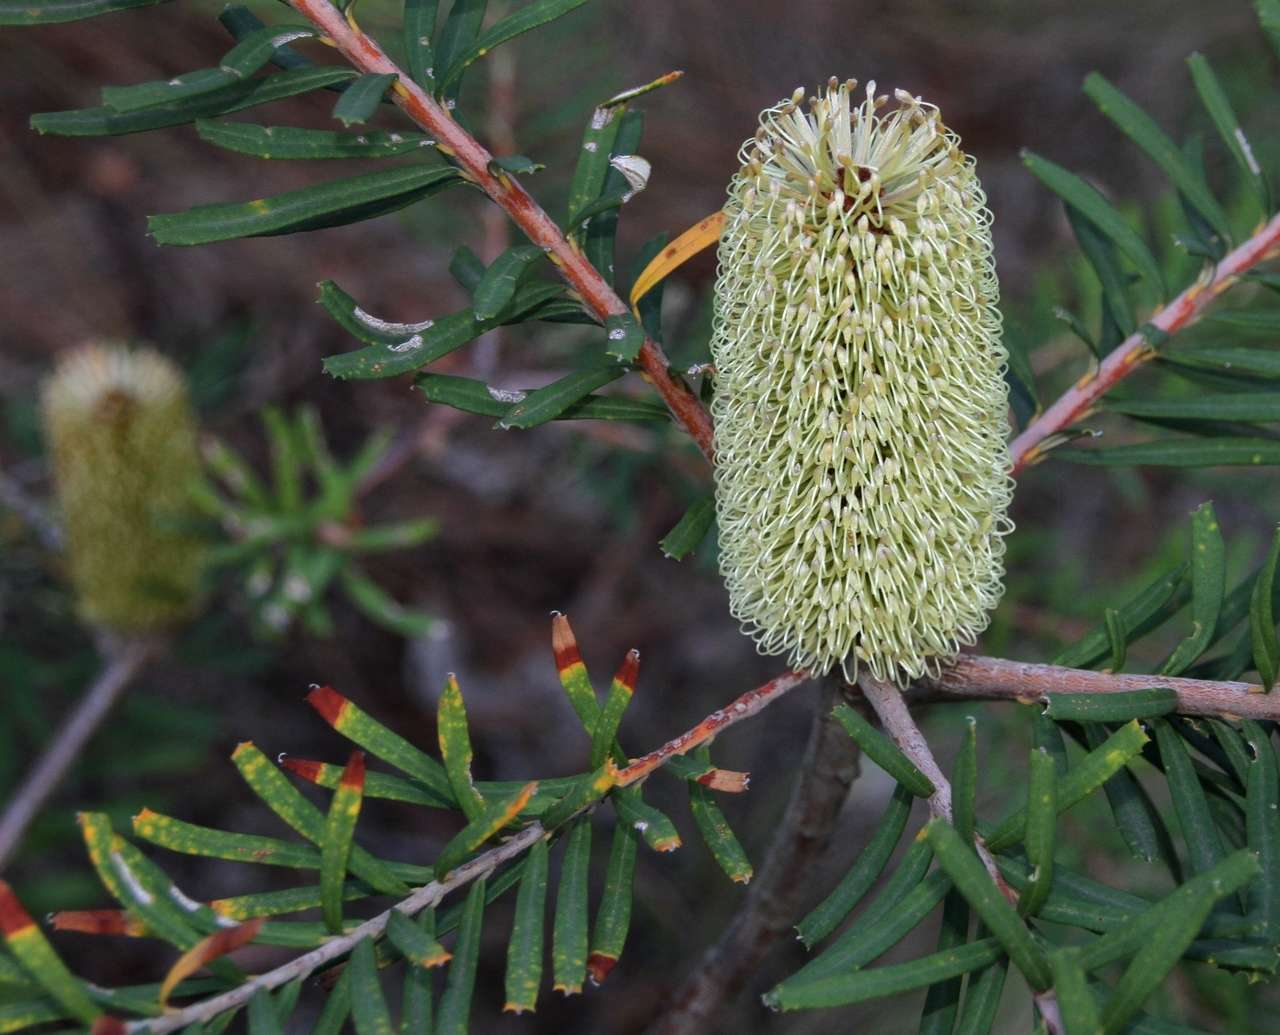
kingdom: Plantae
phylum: Tracheophyta
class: Magnoliopsida
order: Proteales
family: Proteaceae
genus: Banksia
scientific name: Banksia marginata
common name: Silver banksia
